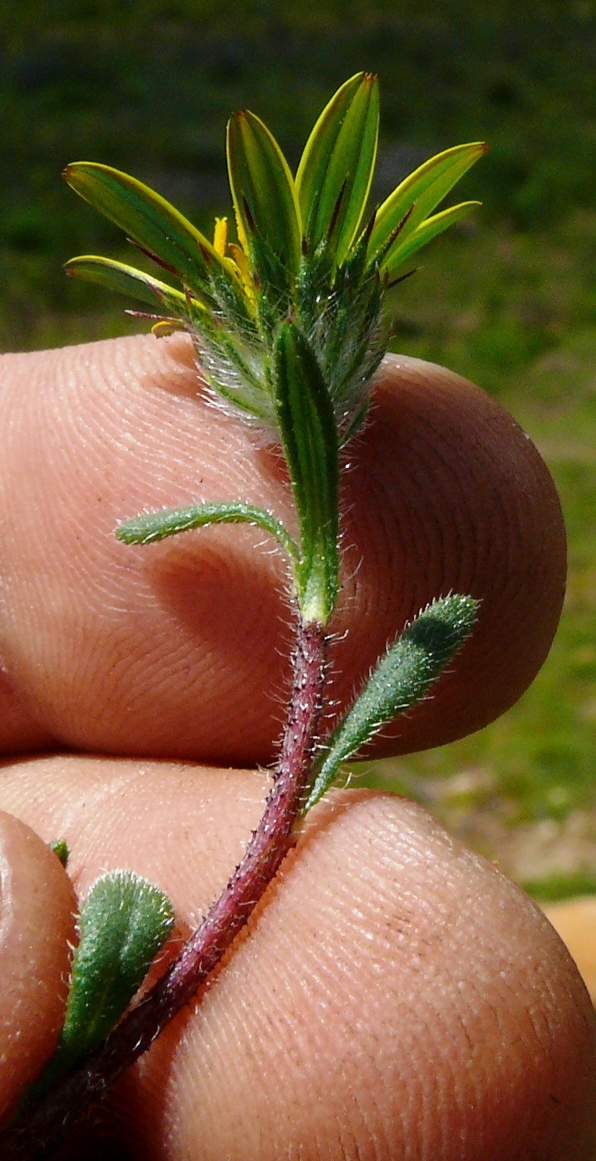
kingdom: Plantae
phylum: Tracheophyta
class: Magnoliopsida
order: Asterales
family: Asteraceae
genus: Gorteria
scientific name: Gorteria piloselloides
